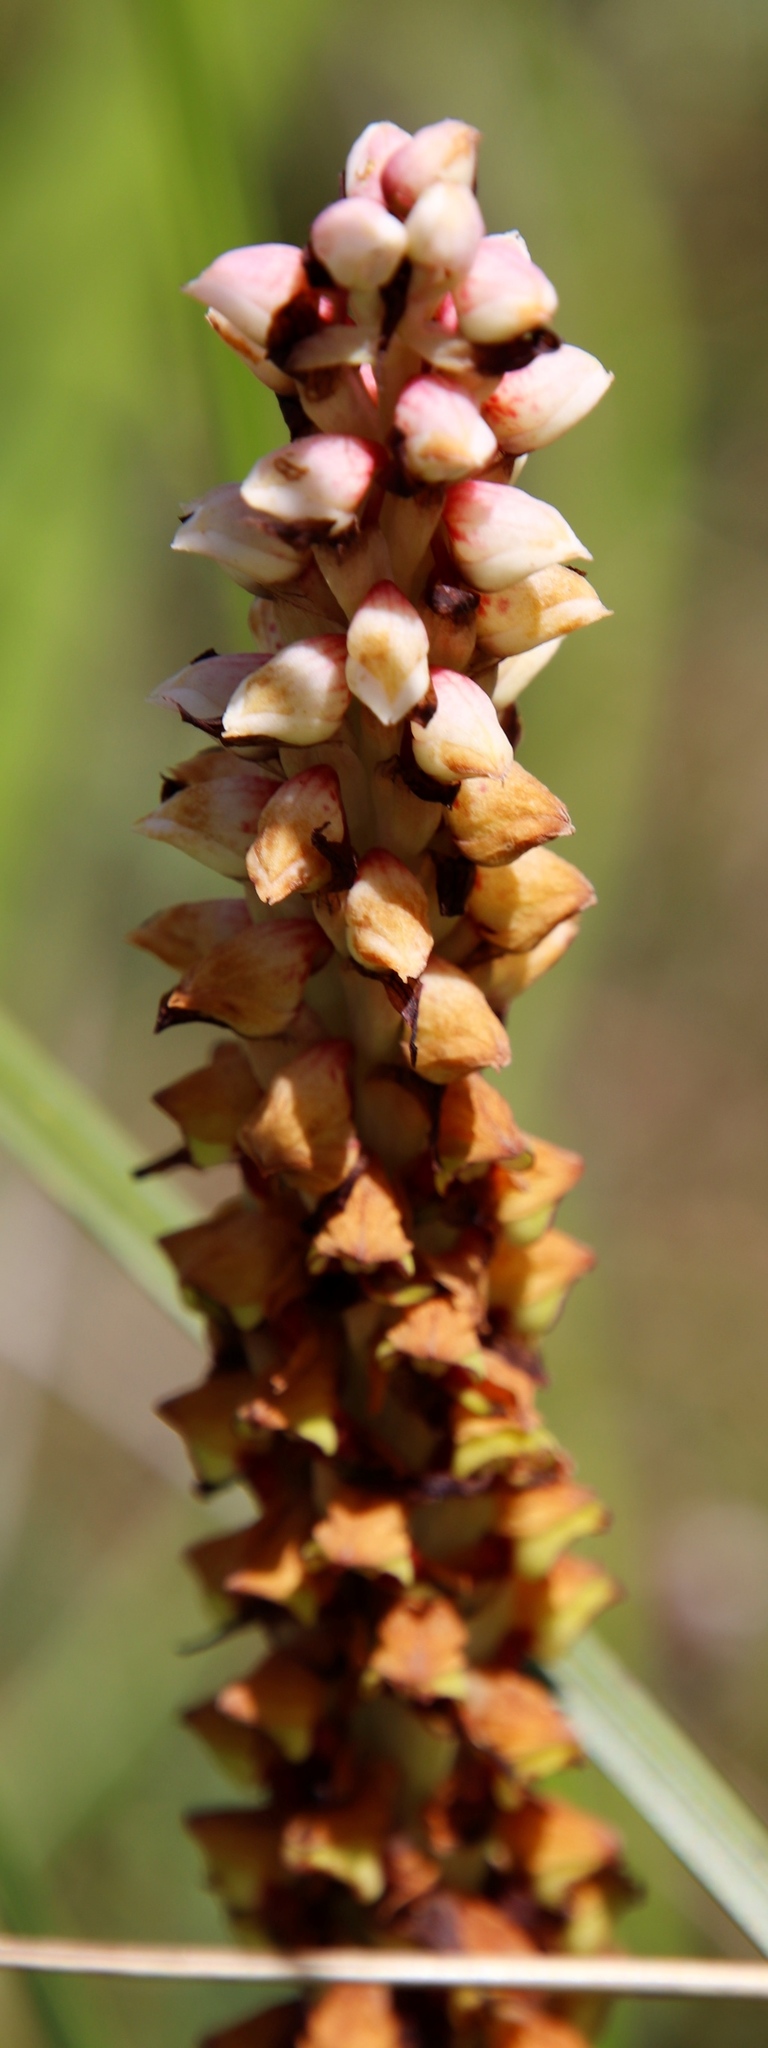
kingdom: Plantae
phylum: Tracheophyta
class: Liliopsida
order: Asparagales
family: Orchidaceae
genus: Disa
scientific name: Disa versicolor
